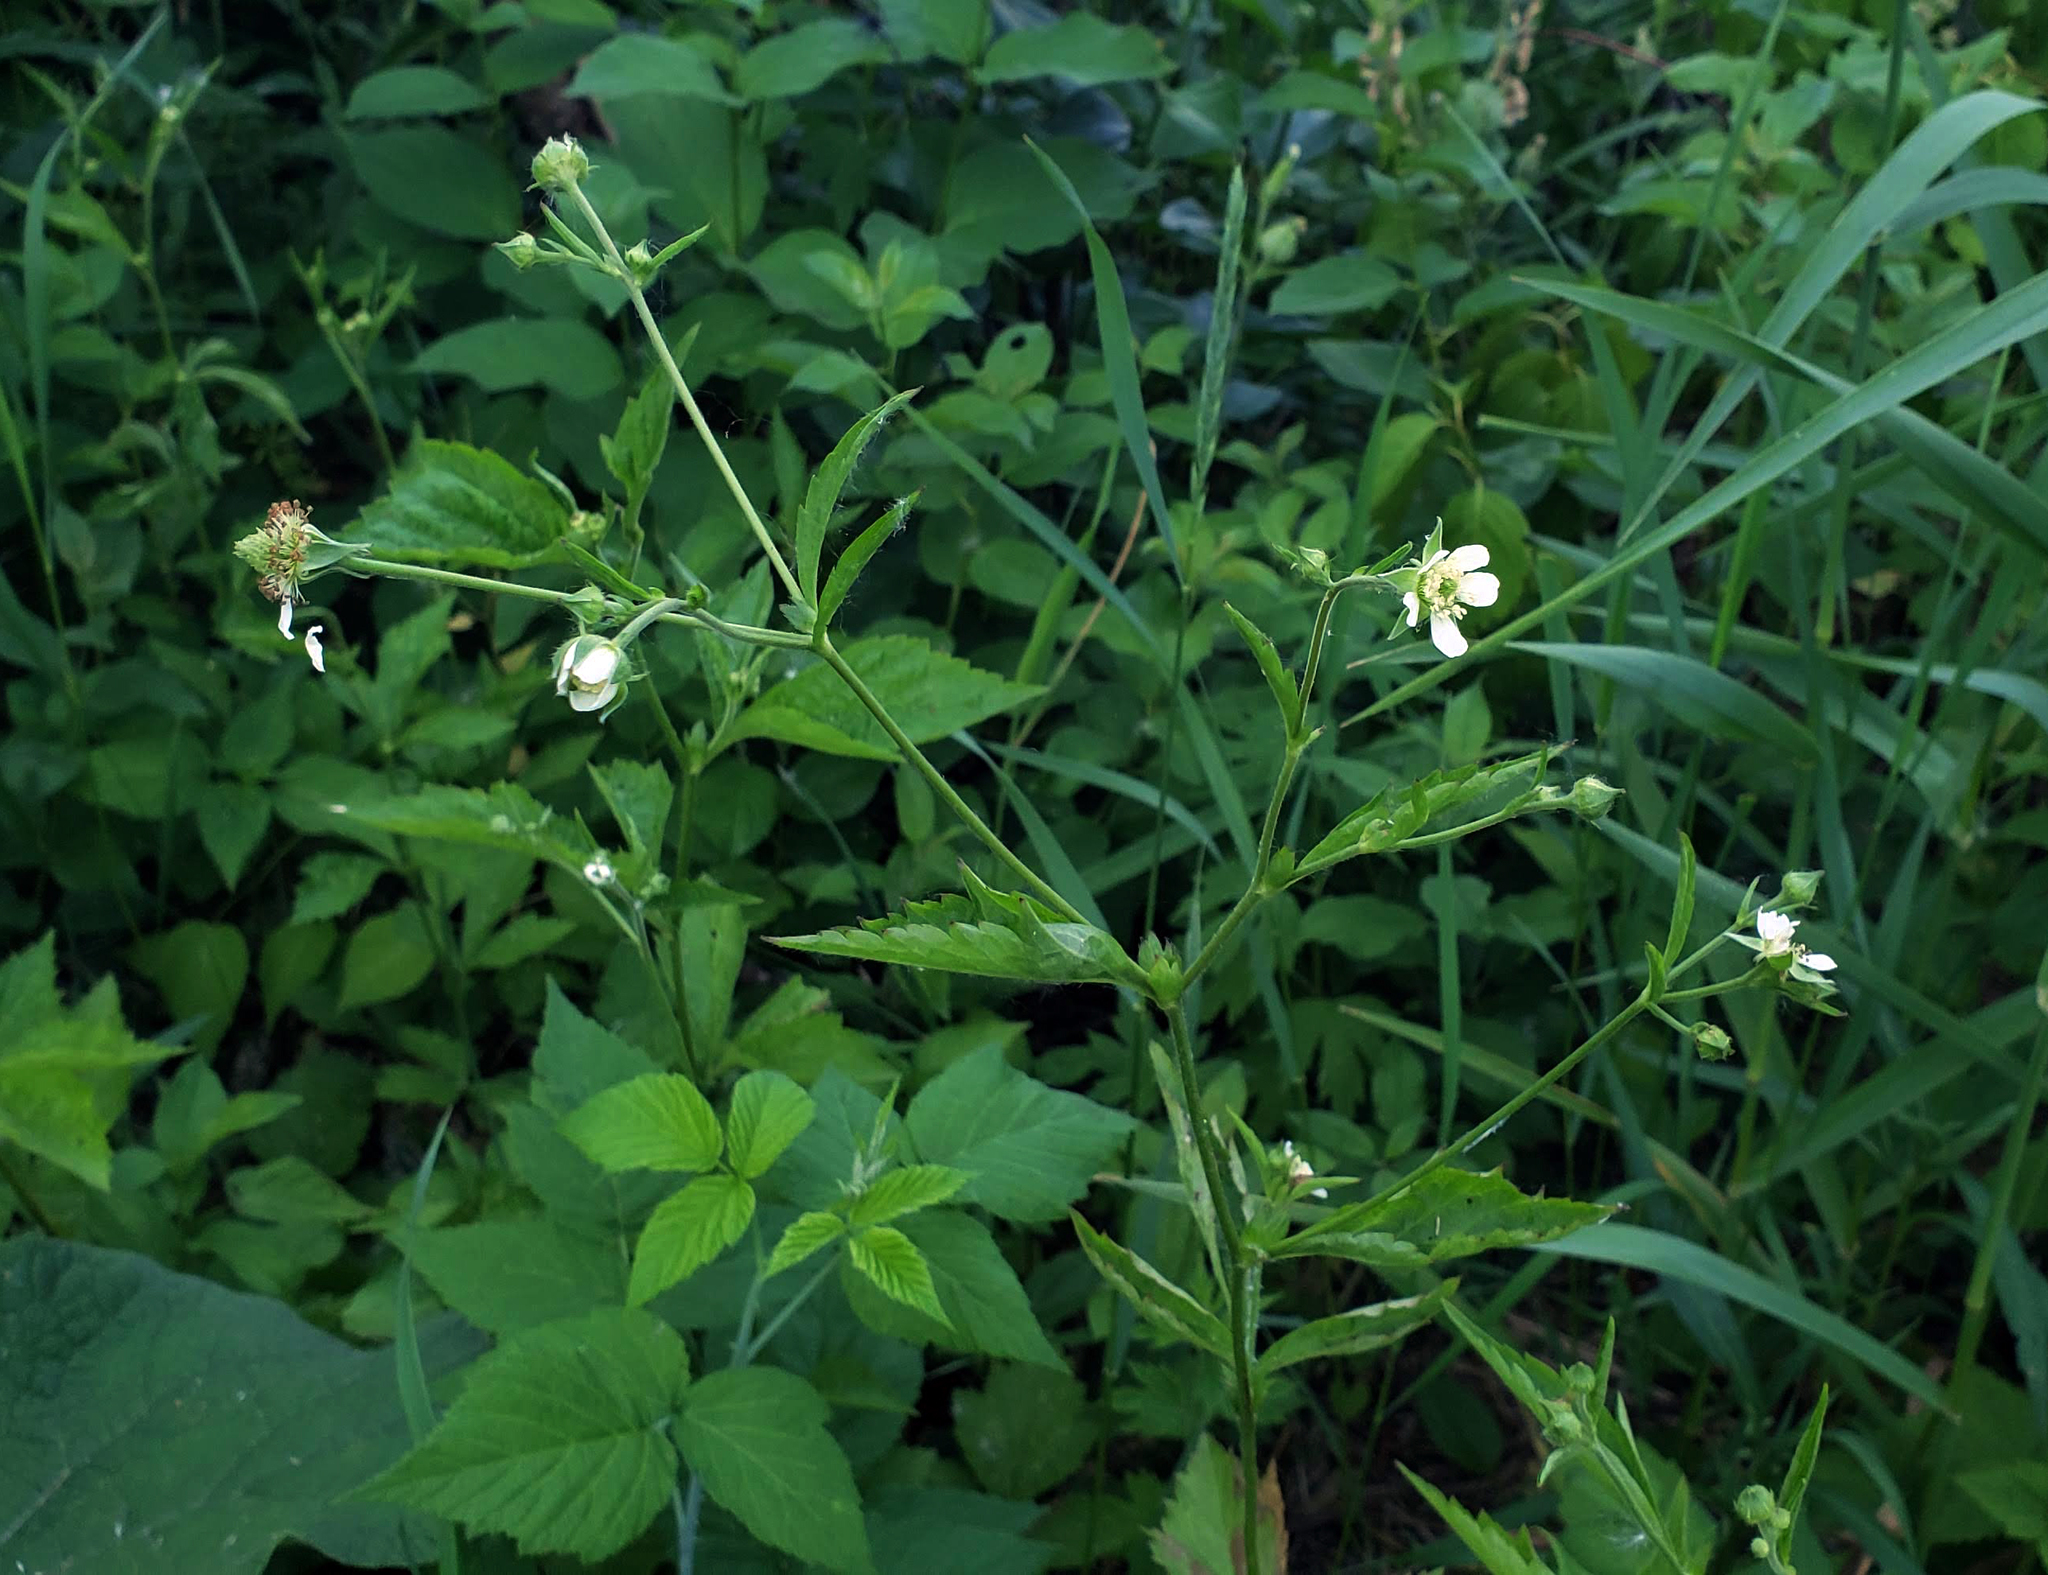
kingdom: Plantae
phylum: Tracheophyta
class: Magnoliopsida
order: Rosales
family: Rosaceae
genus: Geum
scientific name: Geum canadense
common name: White avens
